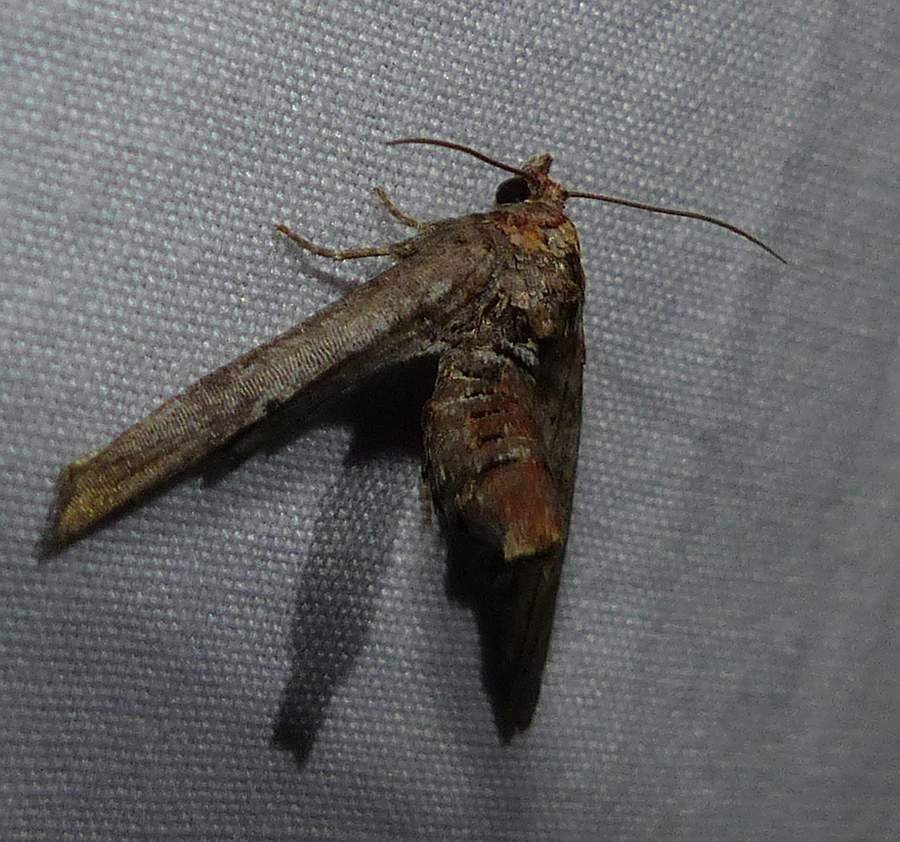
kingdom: Animalia
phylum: Arthropoda
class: Insecta
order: Lepidoptera
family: Euteliidae
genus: Marathyssa
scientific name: Marathyssa inficita
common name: Dark marathyssa moth
